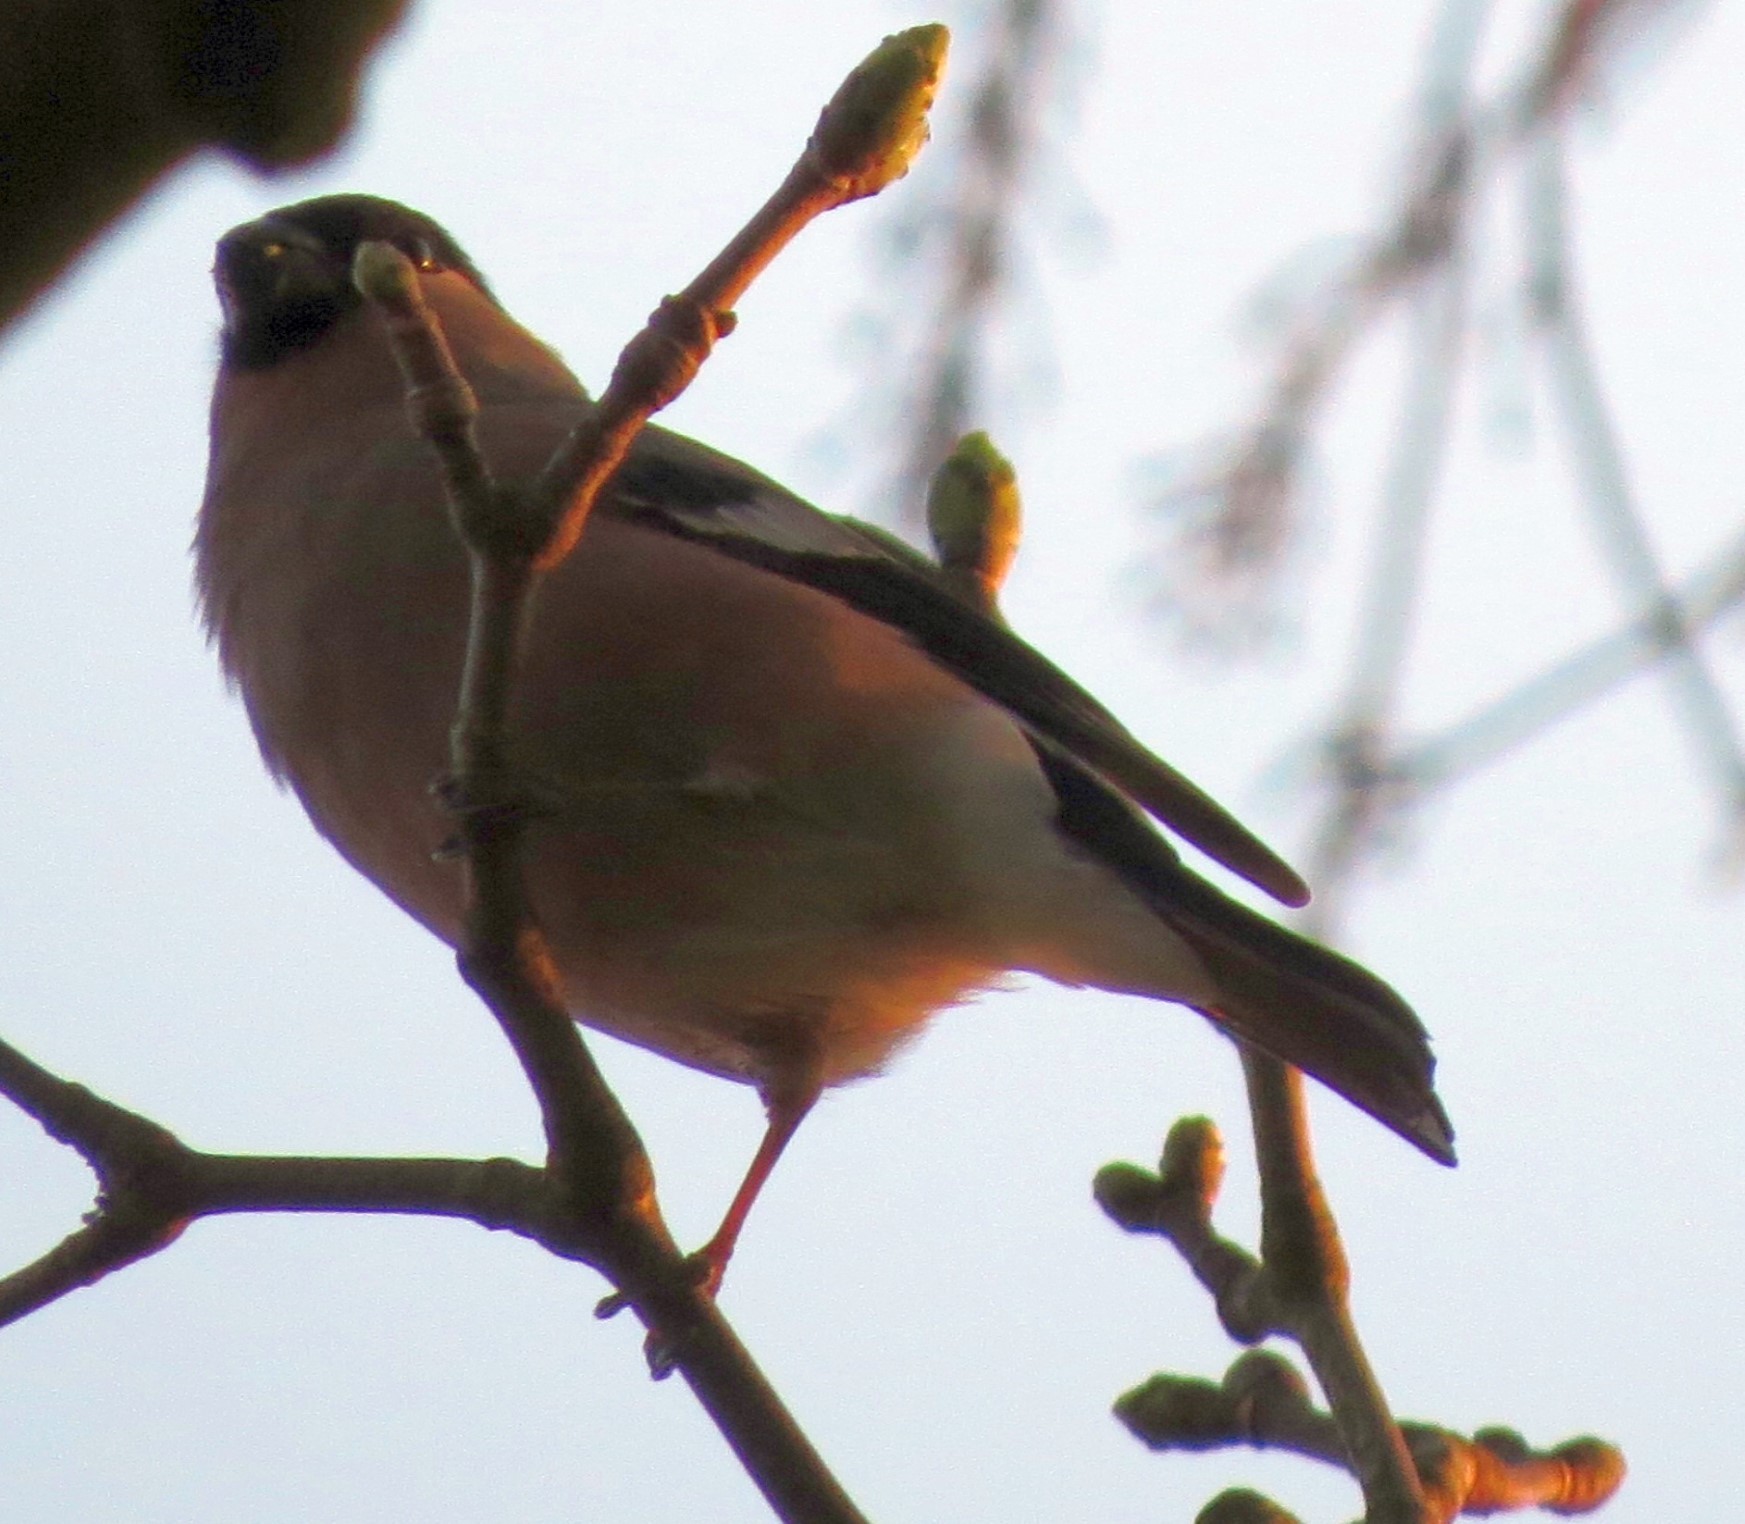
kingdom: Animalia
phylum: Chordata
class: Aves
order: Passeriformes
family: Fringillidae
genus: Pyrrhula
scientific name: Pyrrhula pyrrhula
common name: Eurasian bullfinch
